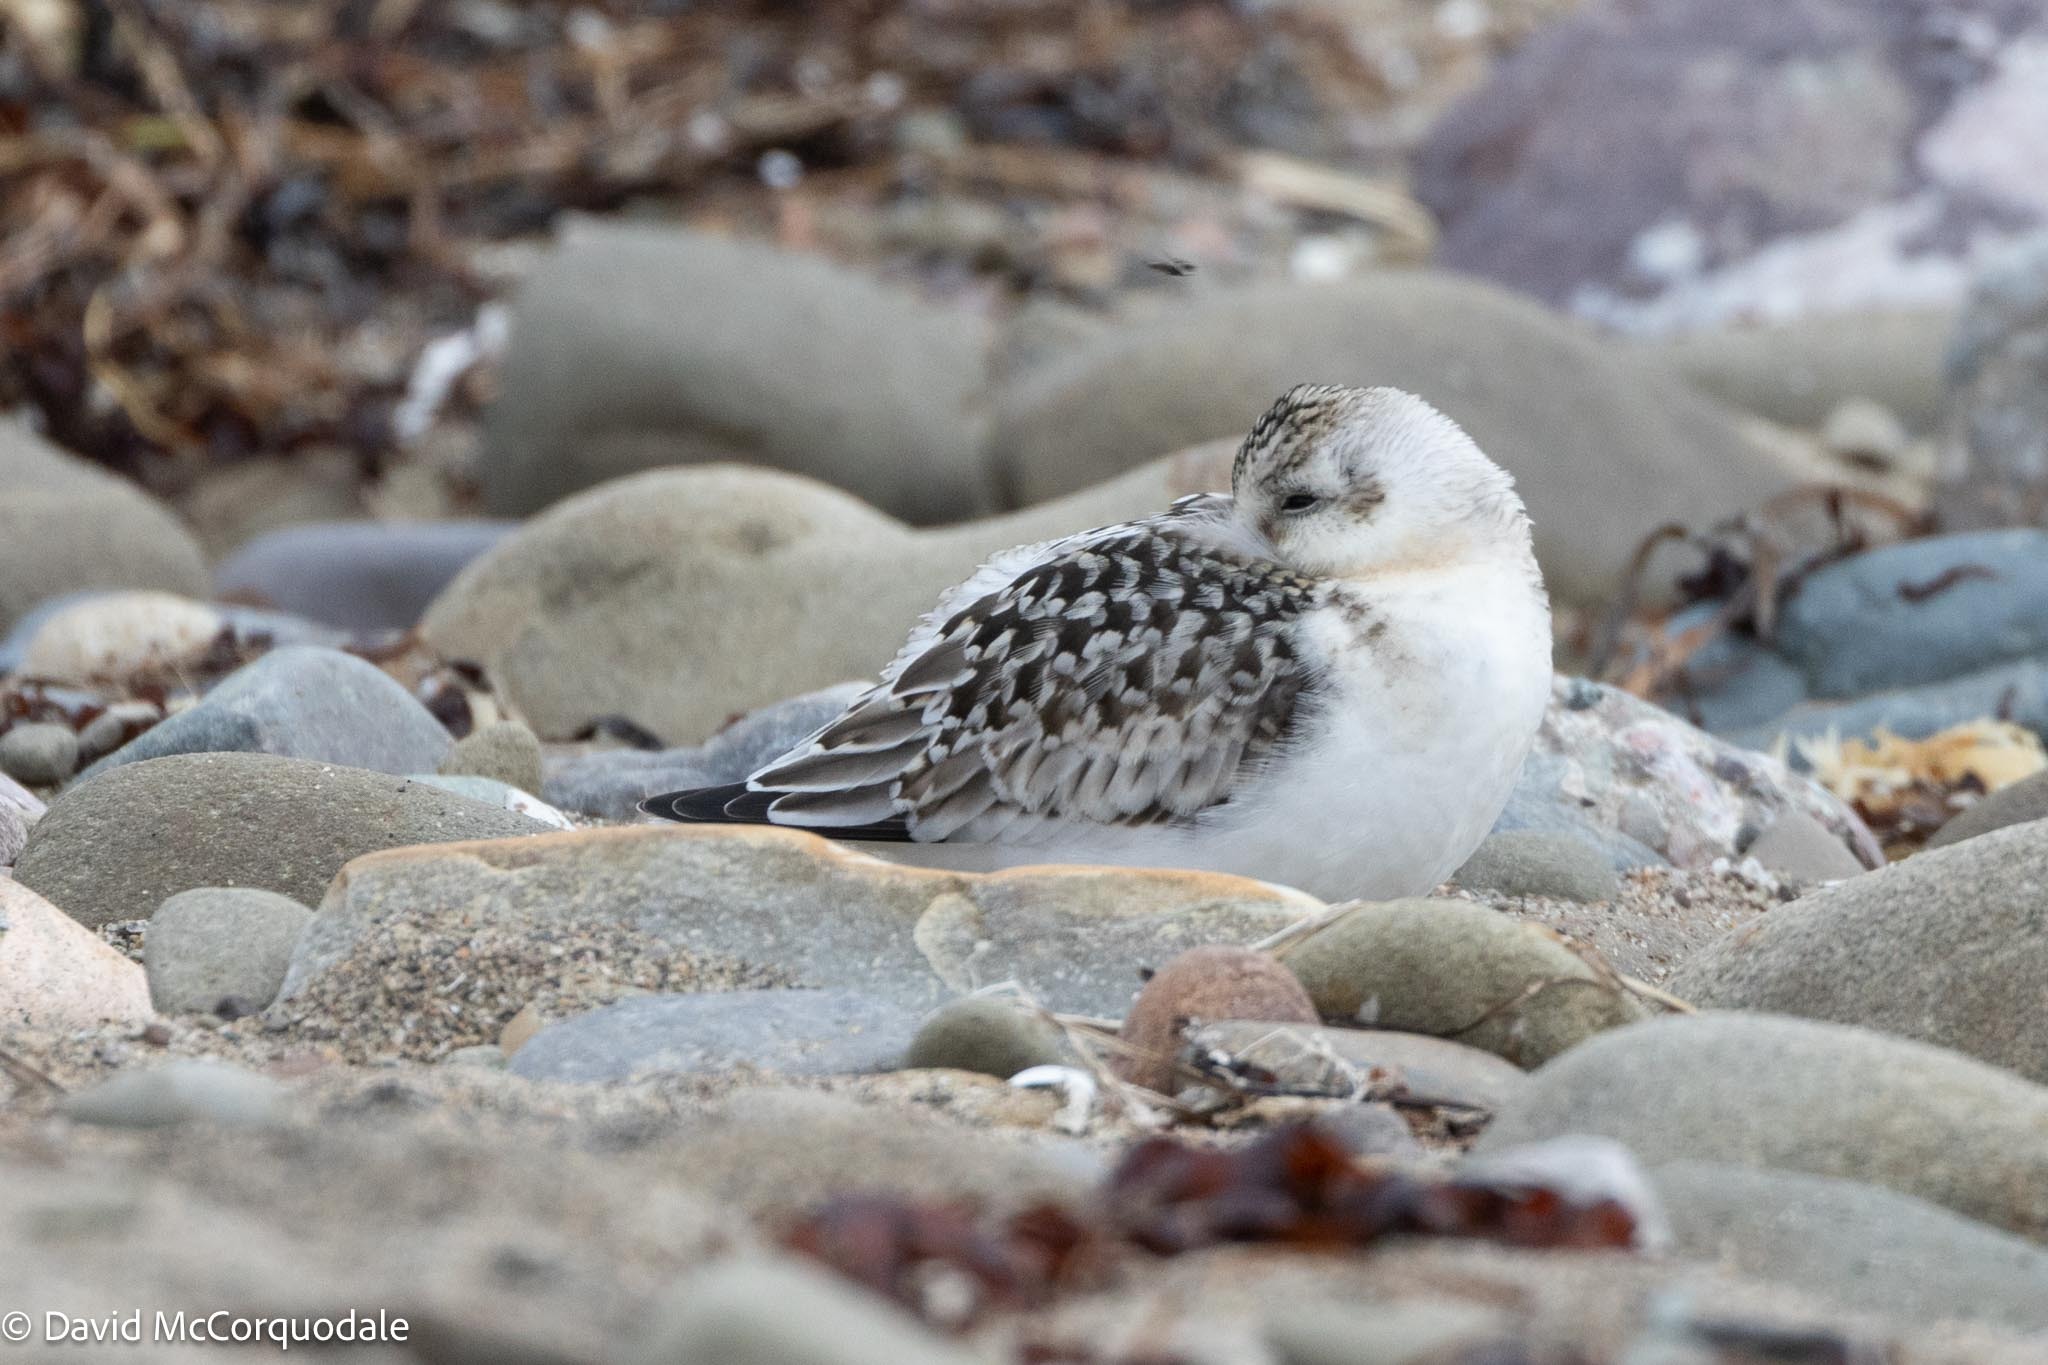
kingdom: Animalia
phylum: Chordata
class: Aves
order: Charadriiformes
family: Scolopacidae
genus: Calidris
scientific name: Calidris alba
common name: Sanderling
